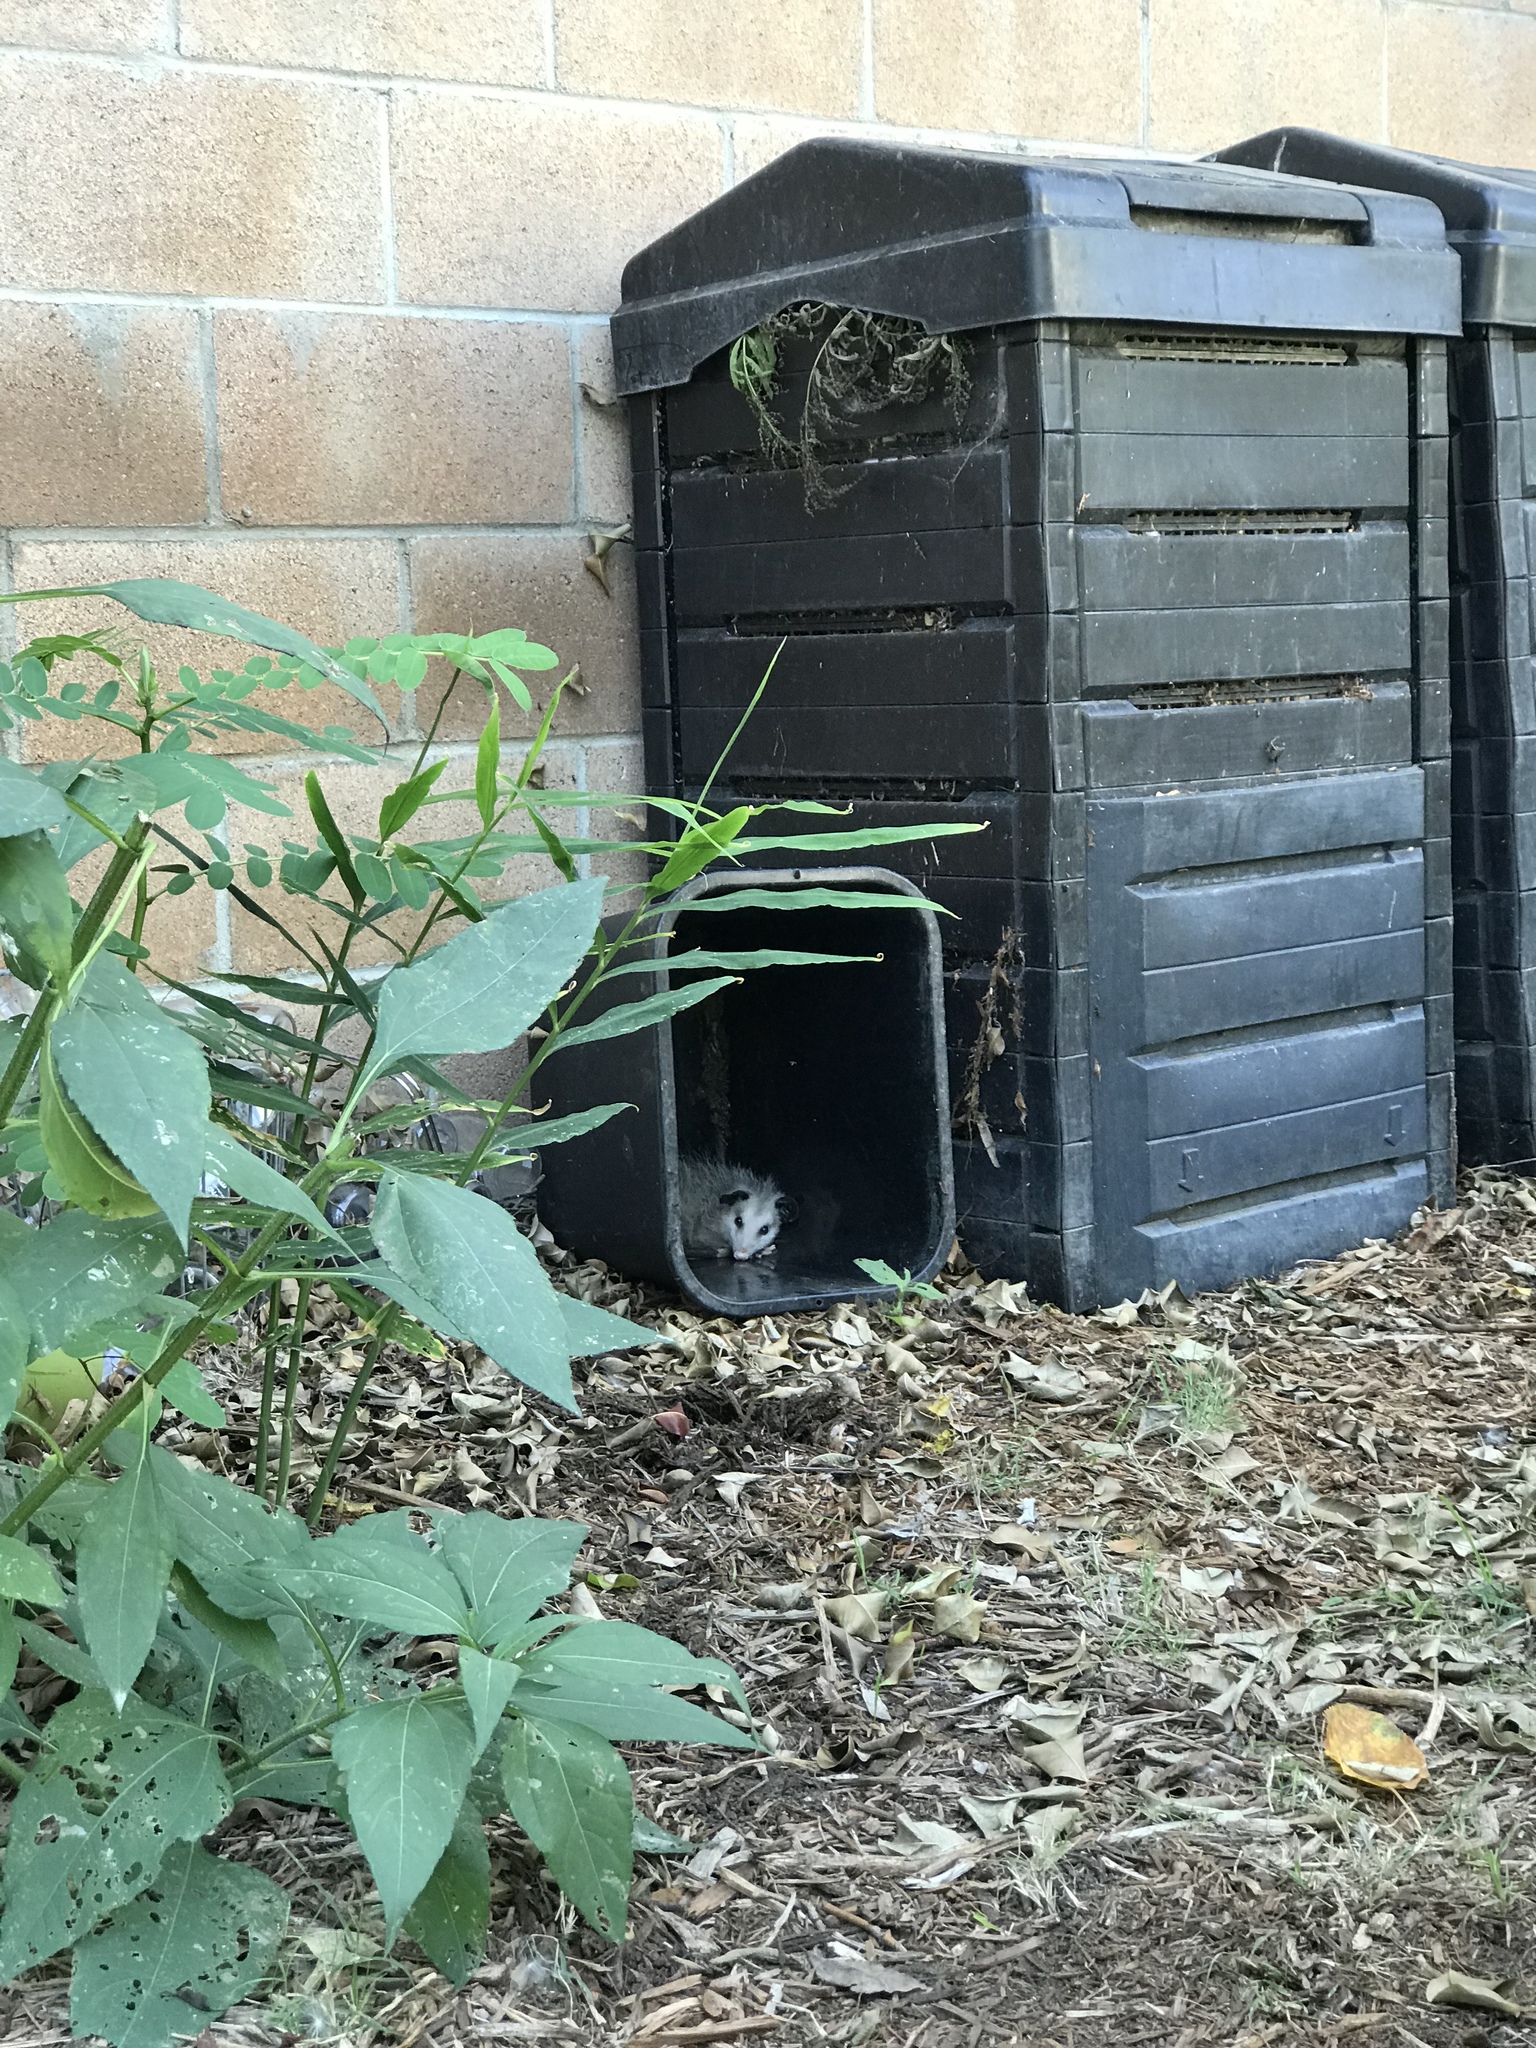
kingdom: Animalia
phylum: Chordata
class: Mammalia
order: Didelphimorphia
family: Didelphidae
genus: Didelphis
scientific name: Didelphis virginiana
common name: Virginia opossum
